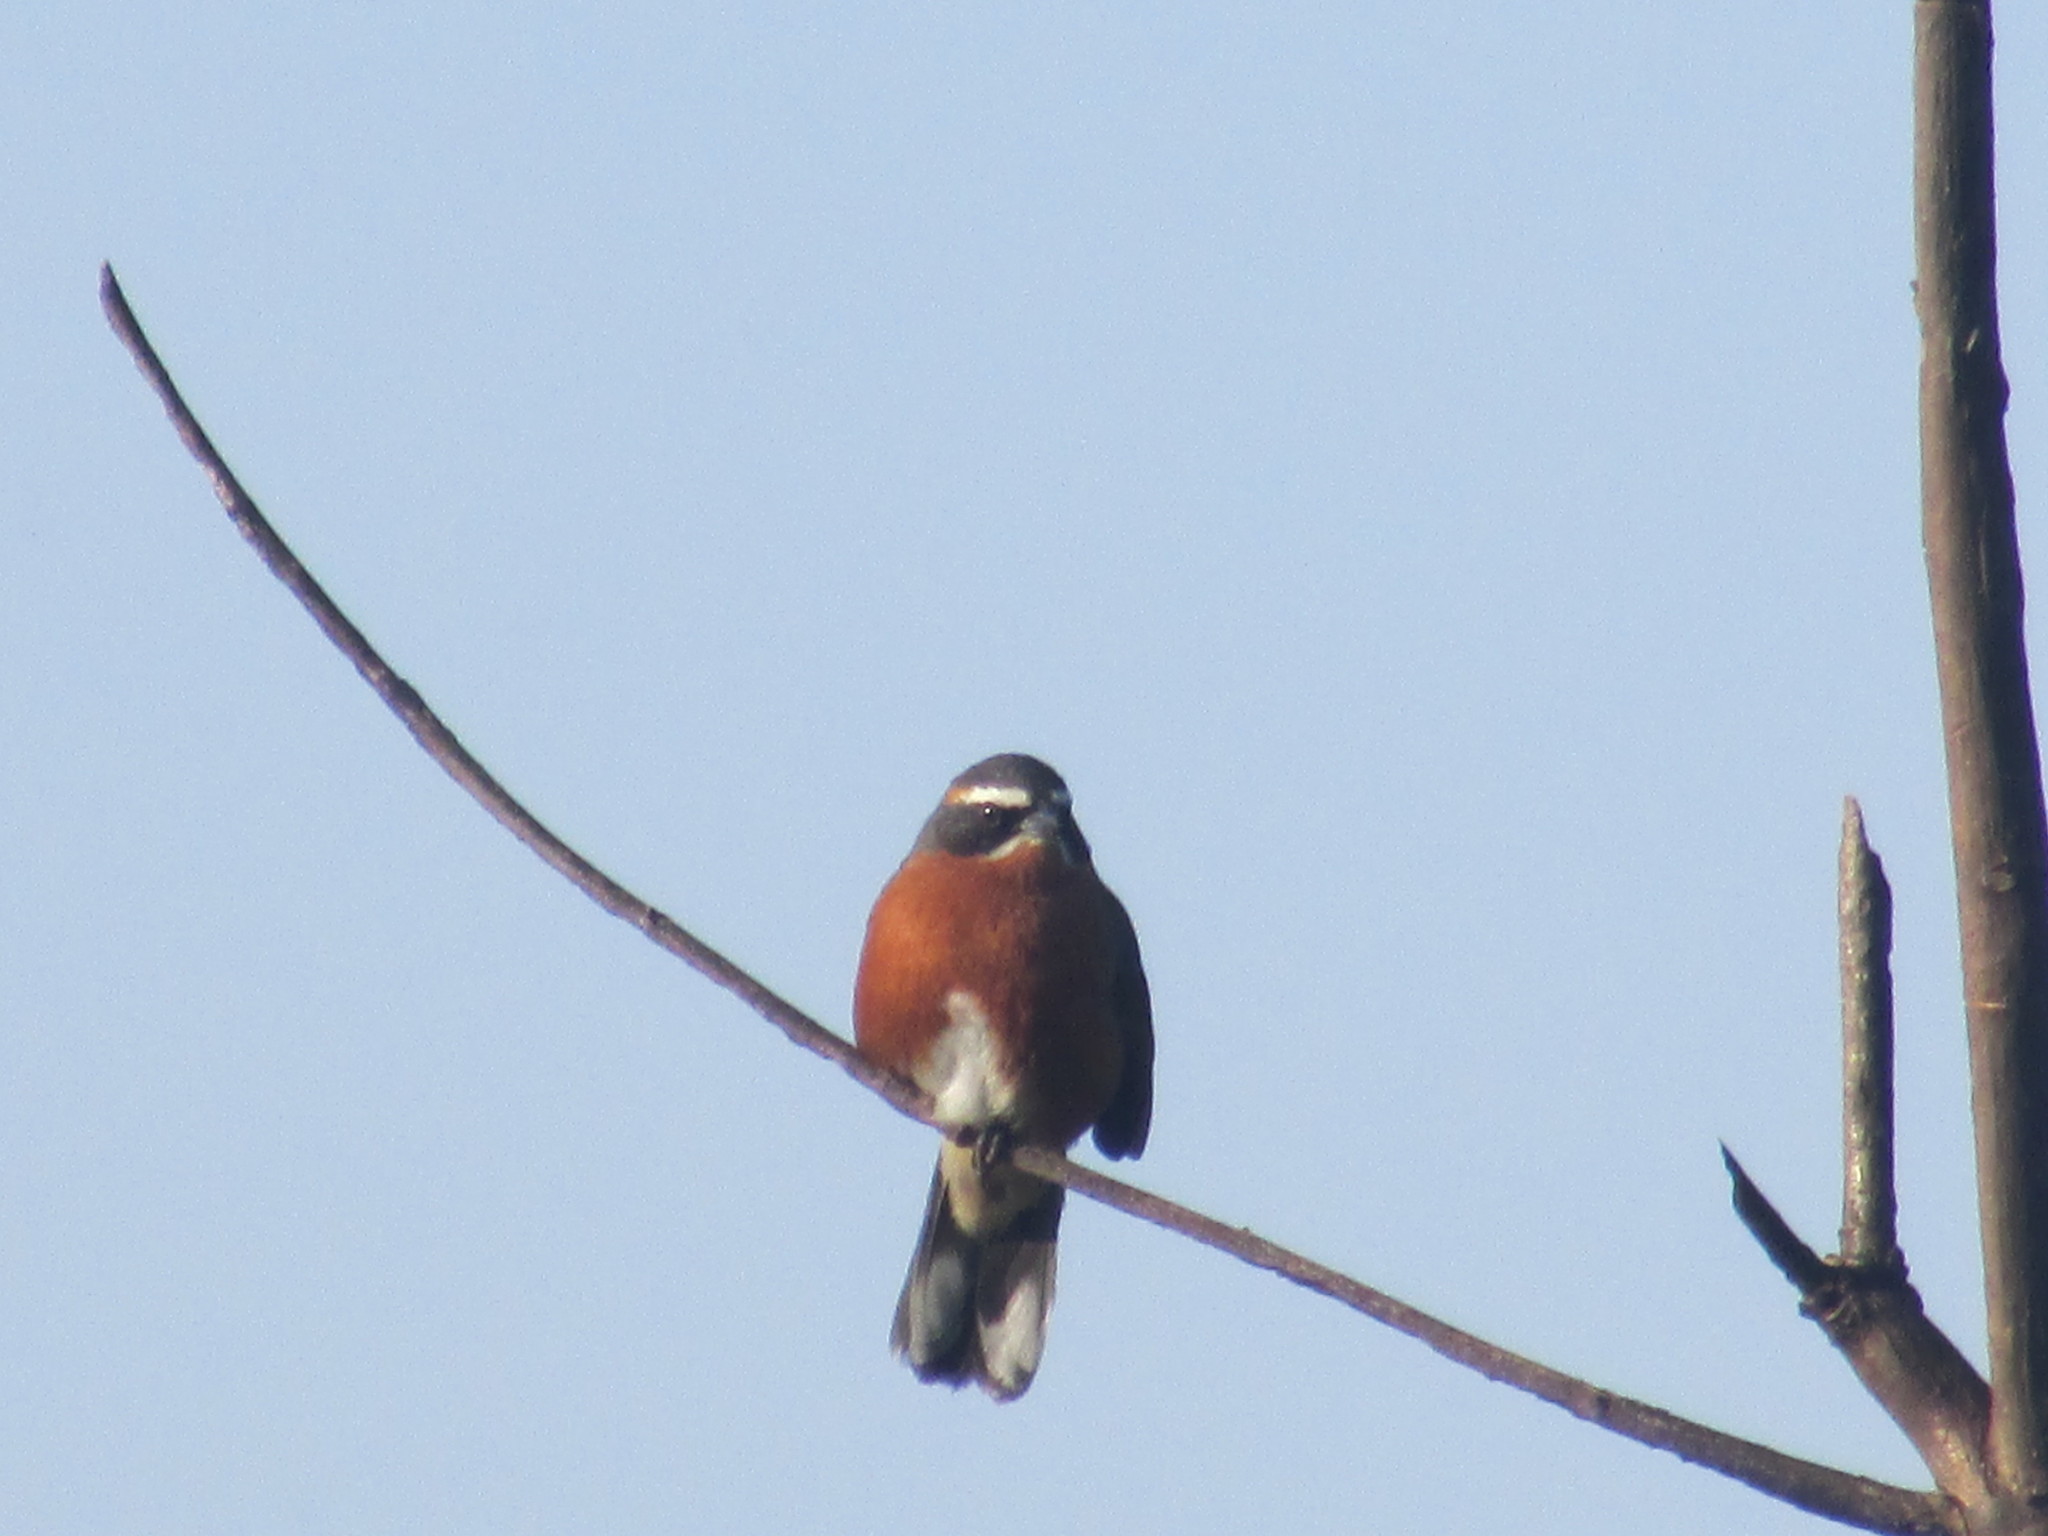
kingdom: Animalia
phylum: Chordata
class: Aves
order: Passeriformes
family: Thraupidae
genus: Poospiza
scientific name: Poospiza nigrorufa
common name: Black-and-rufous warbling finch
